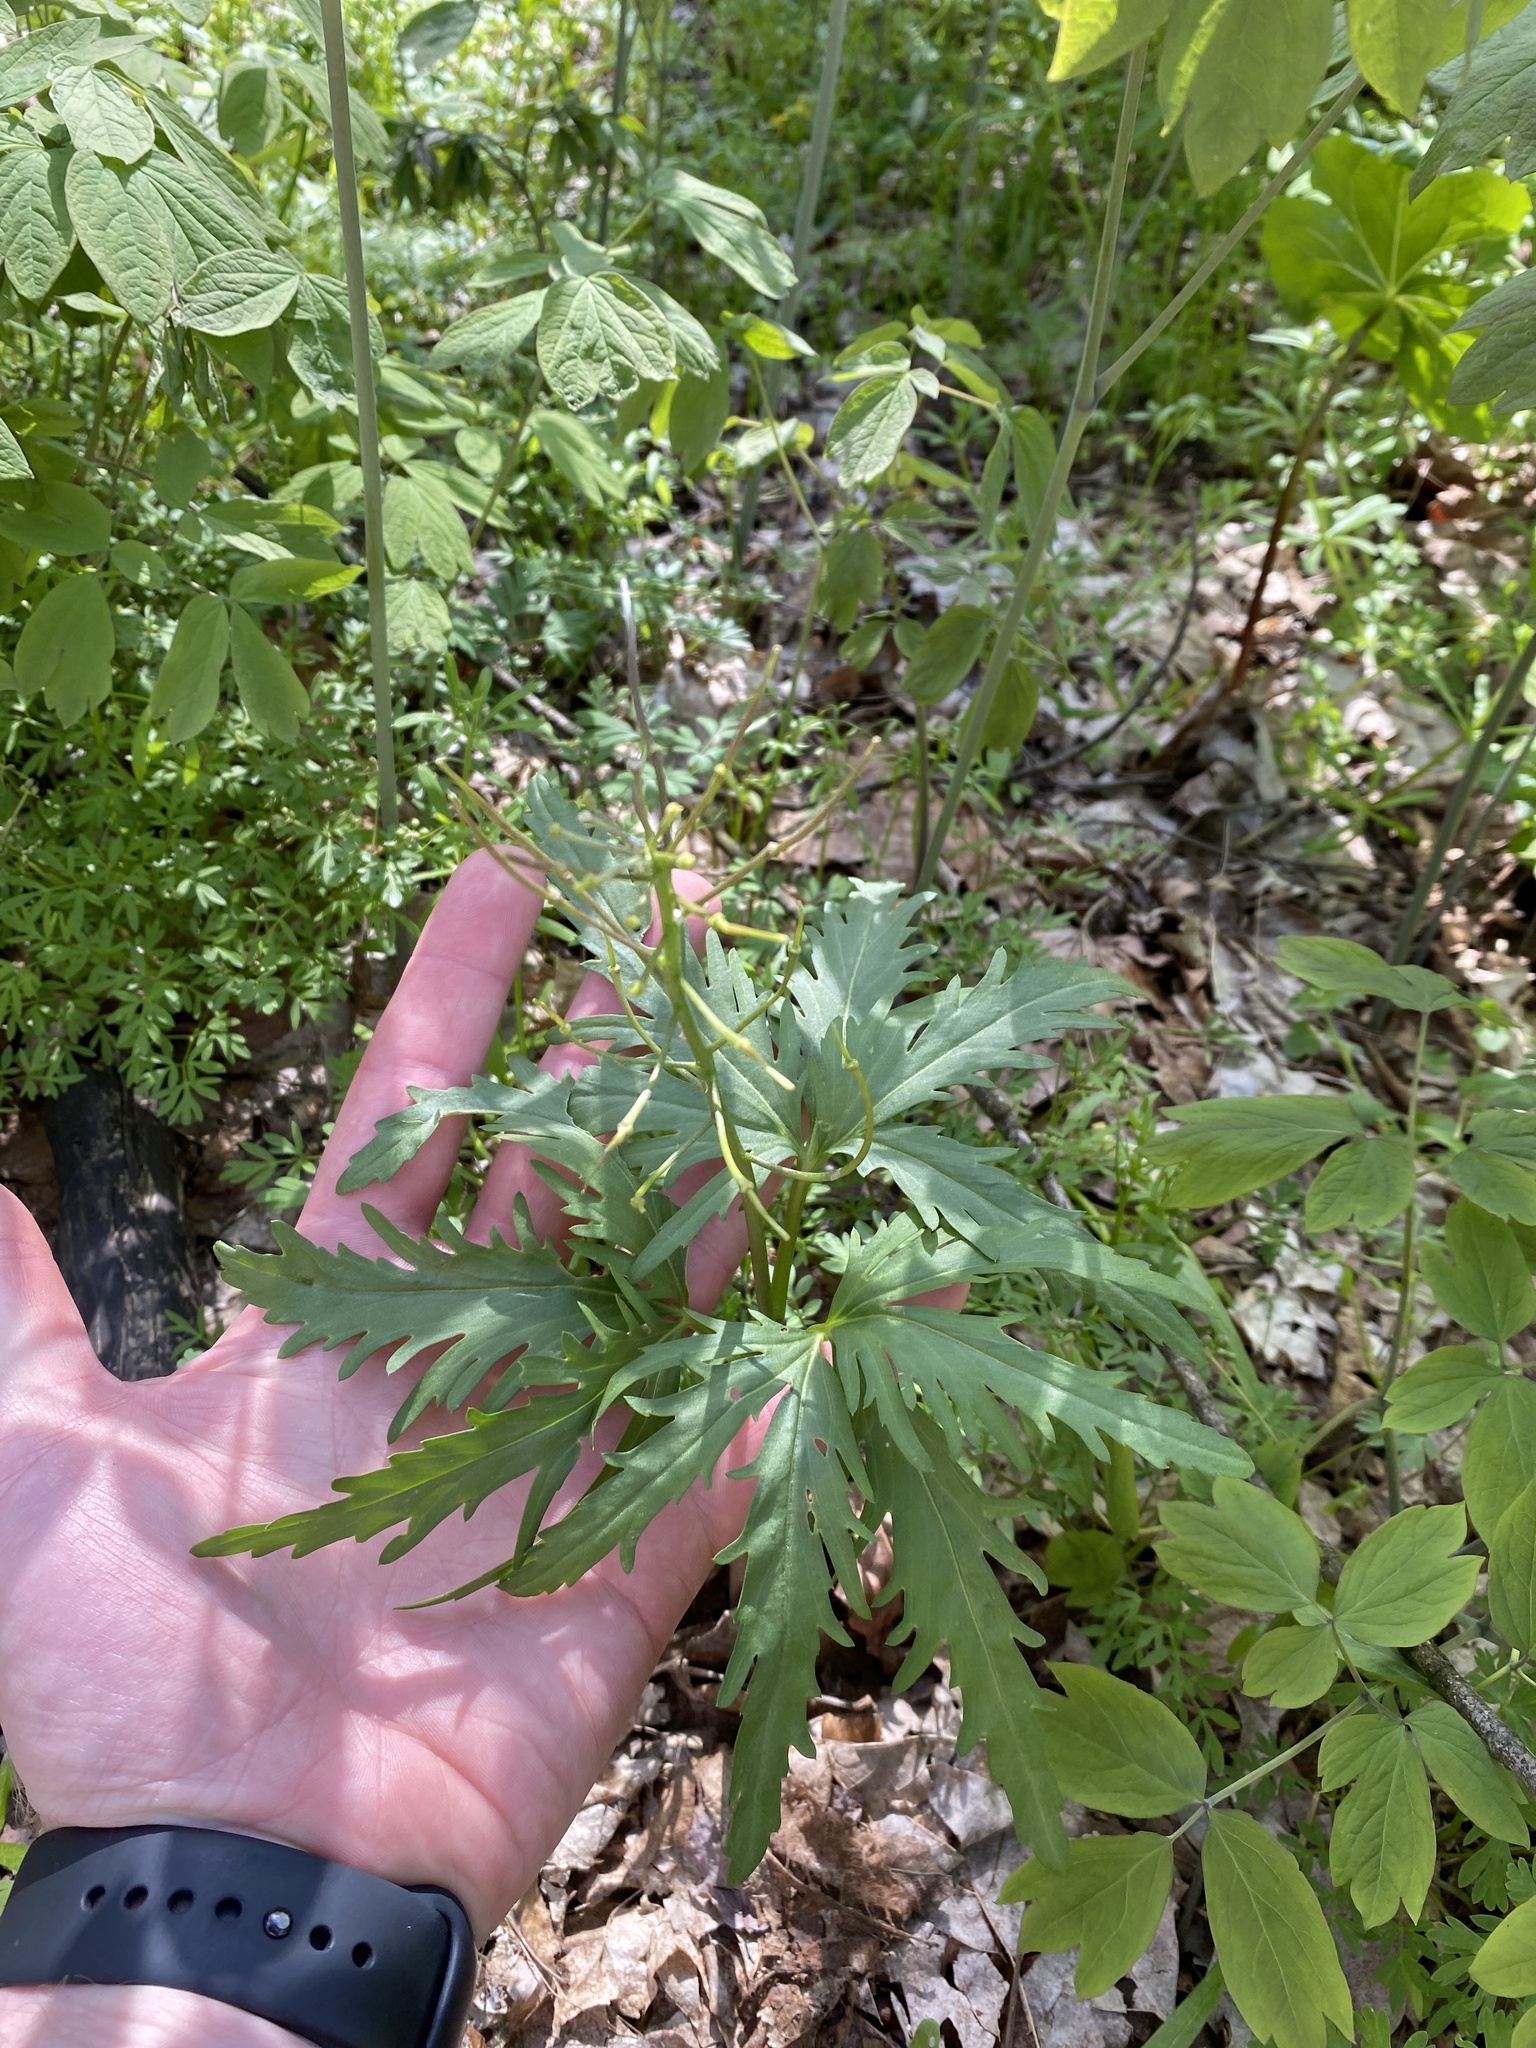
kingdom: Plantae
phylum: Tracheophyta
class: Magnoliopsida
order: Brassicales
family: Brassicaceae
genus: Cardamine
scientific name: Cardamine concatenata
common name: Cut-leaf toothcup
